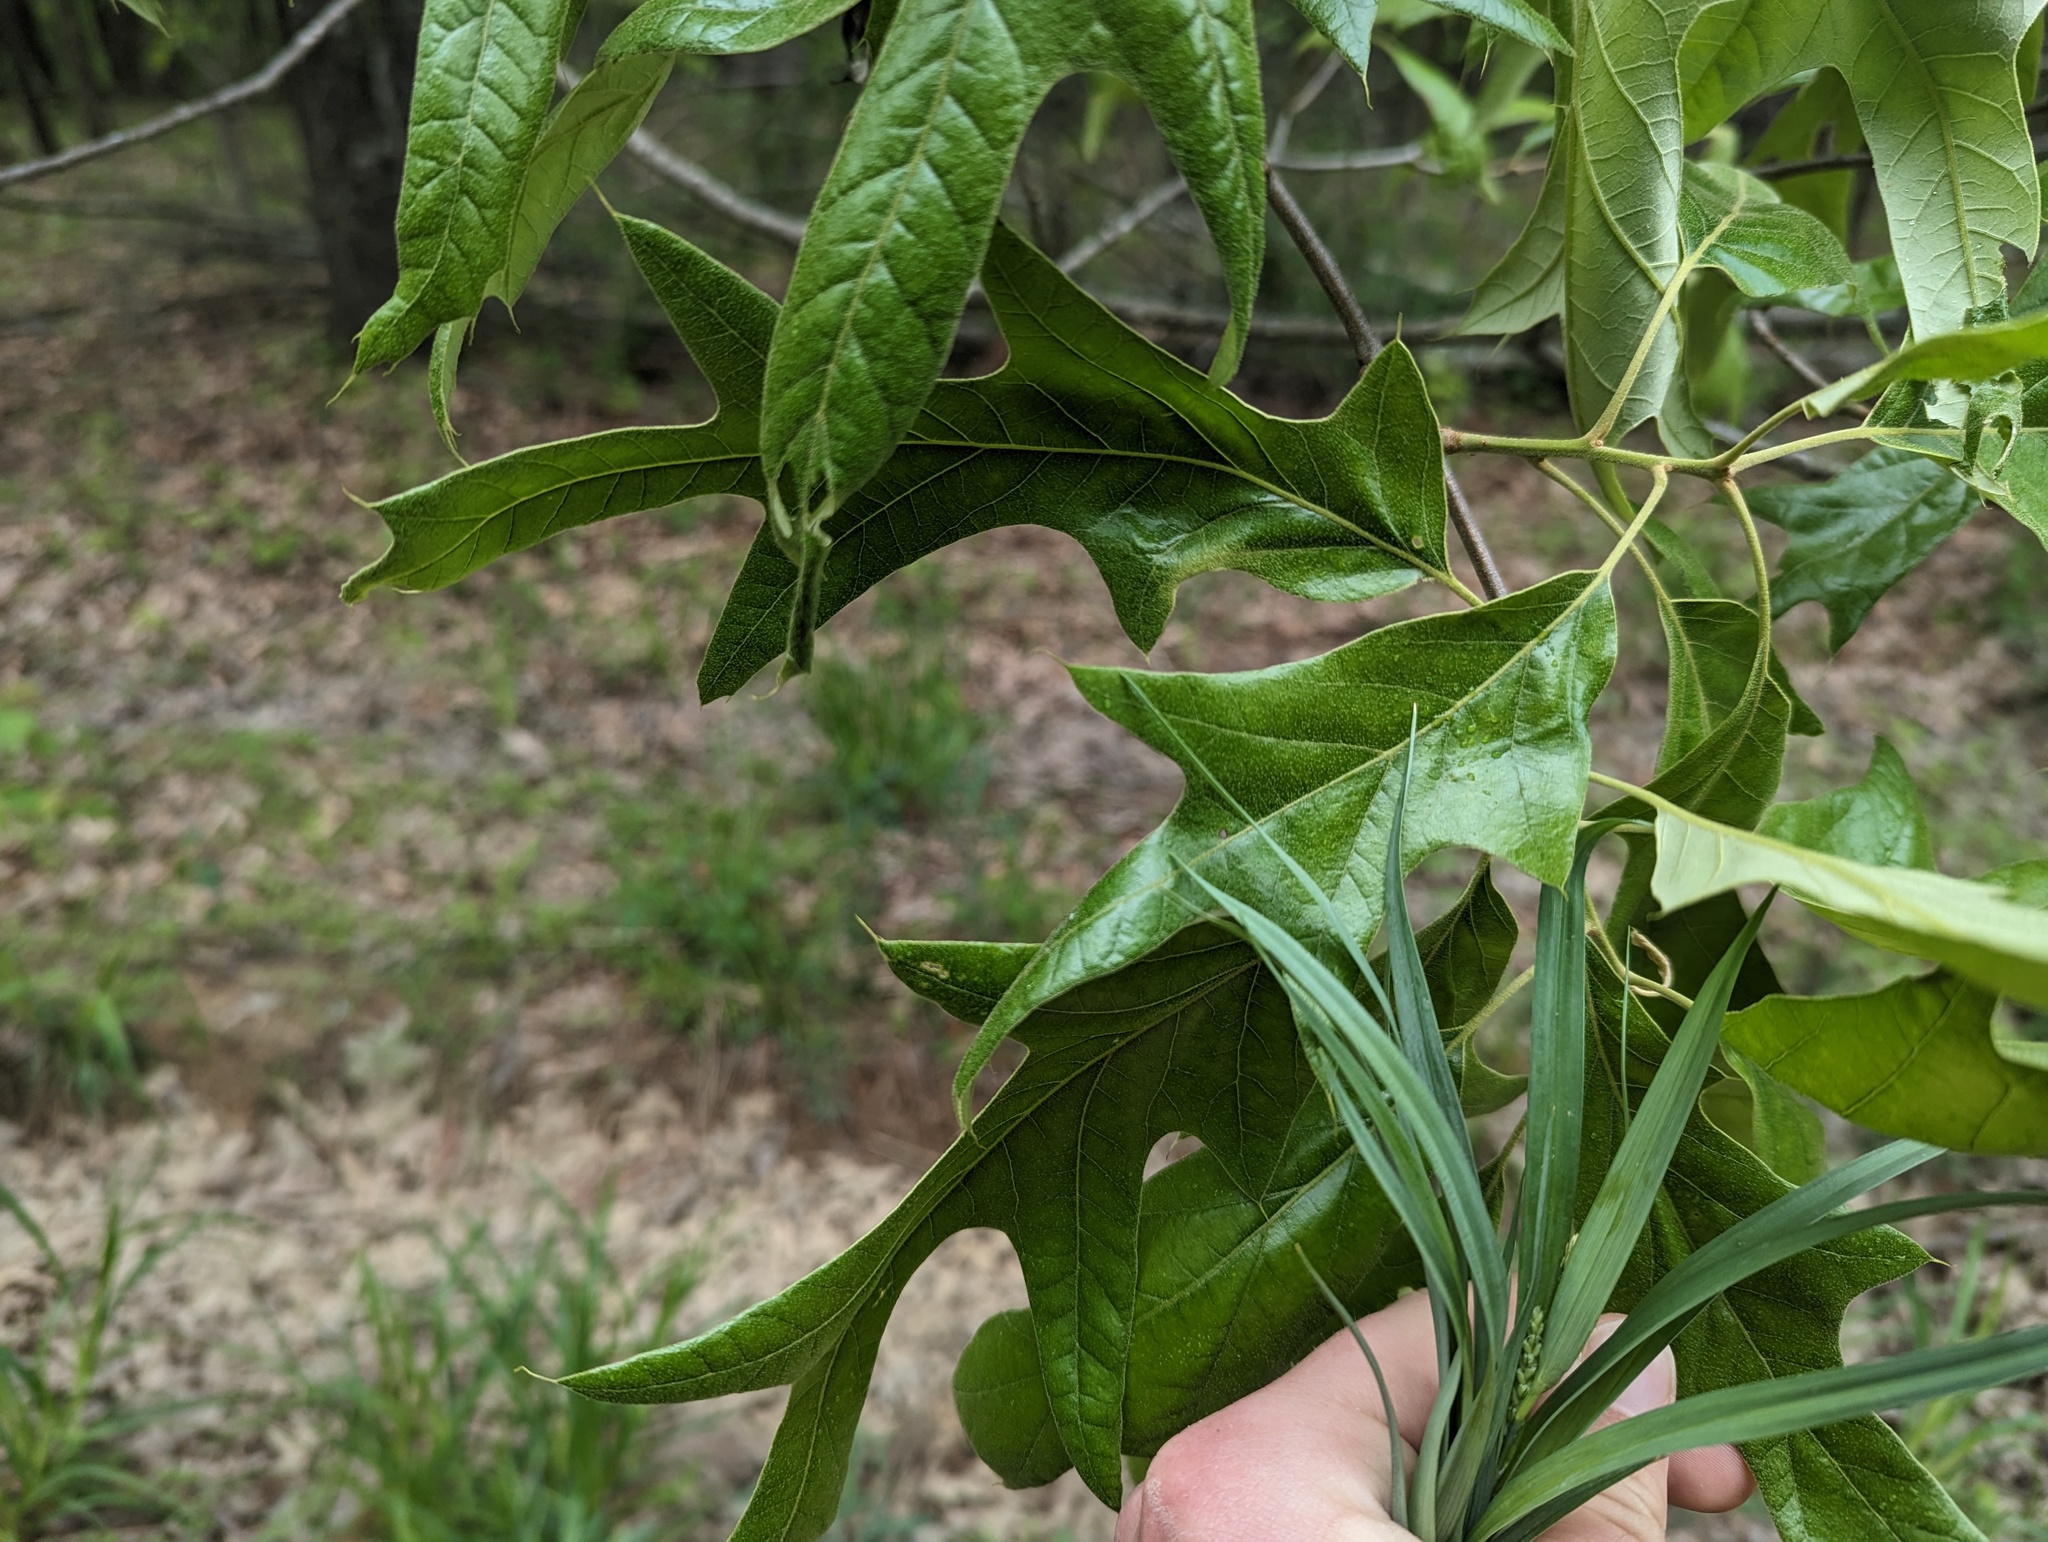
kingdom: Plantae
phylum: Tracheophyta
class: Magnoliopsida
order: Fagales
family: Fagaceae
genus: Quercus
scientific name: Quercus falcata
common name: Southern red oak
